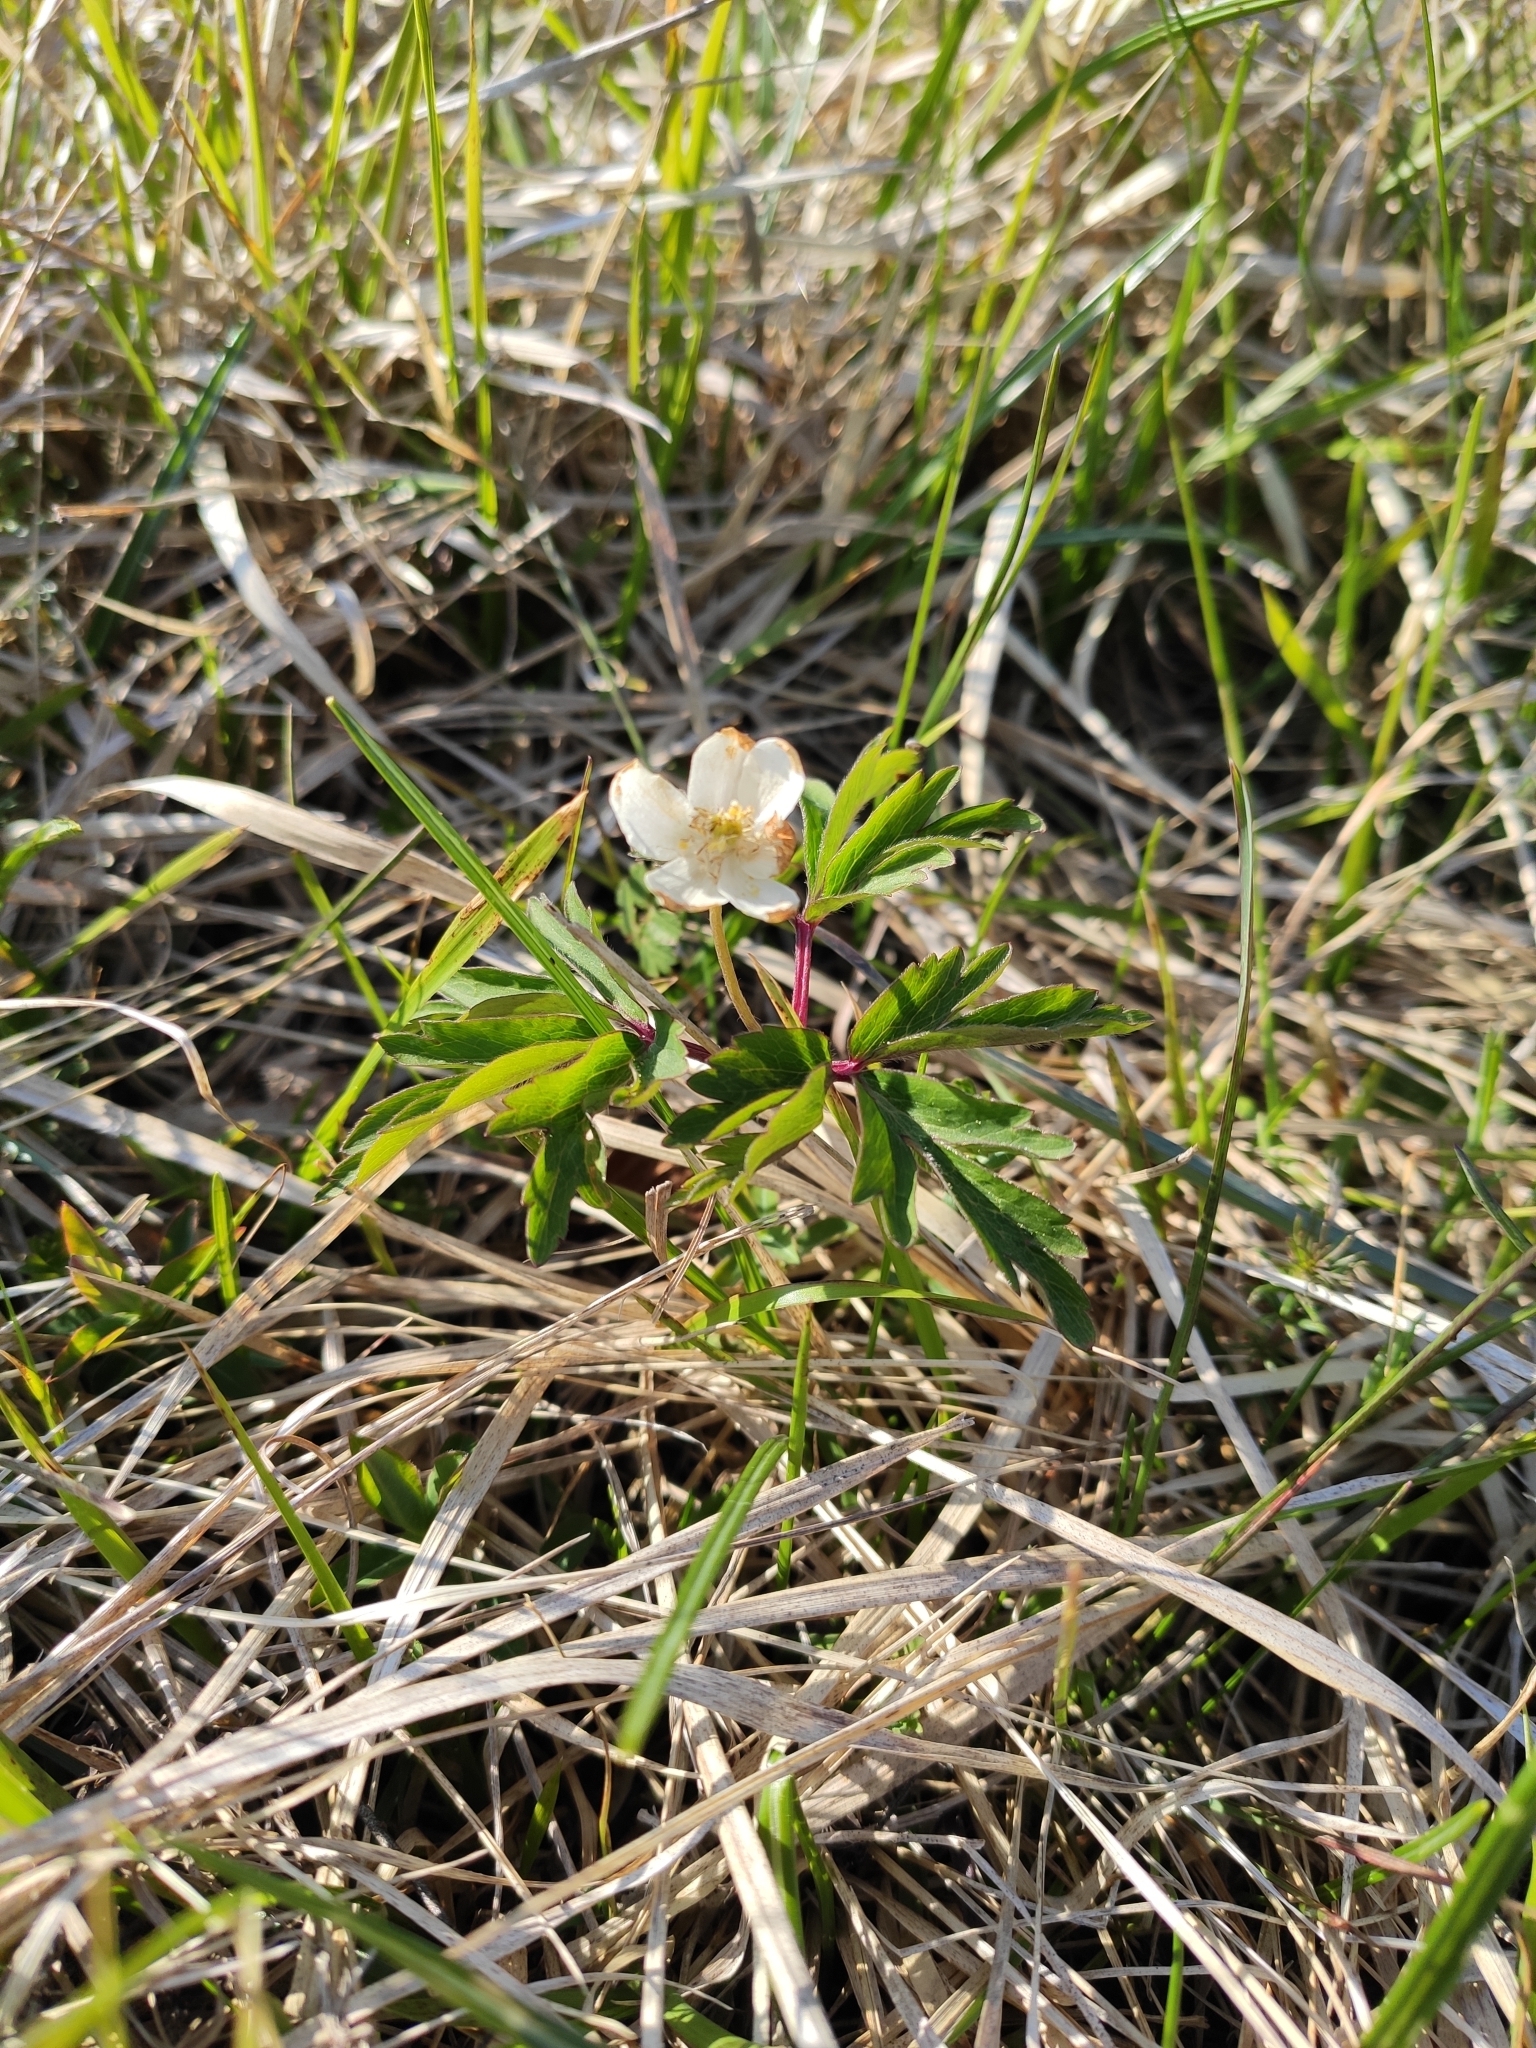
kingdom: Plantae
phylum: Tracheophyta
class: Magnoliopsida
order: Ranunculales
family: Ranunculaceae
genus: Anemone
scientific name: Anemone nemorosa
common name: Wood anemone
